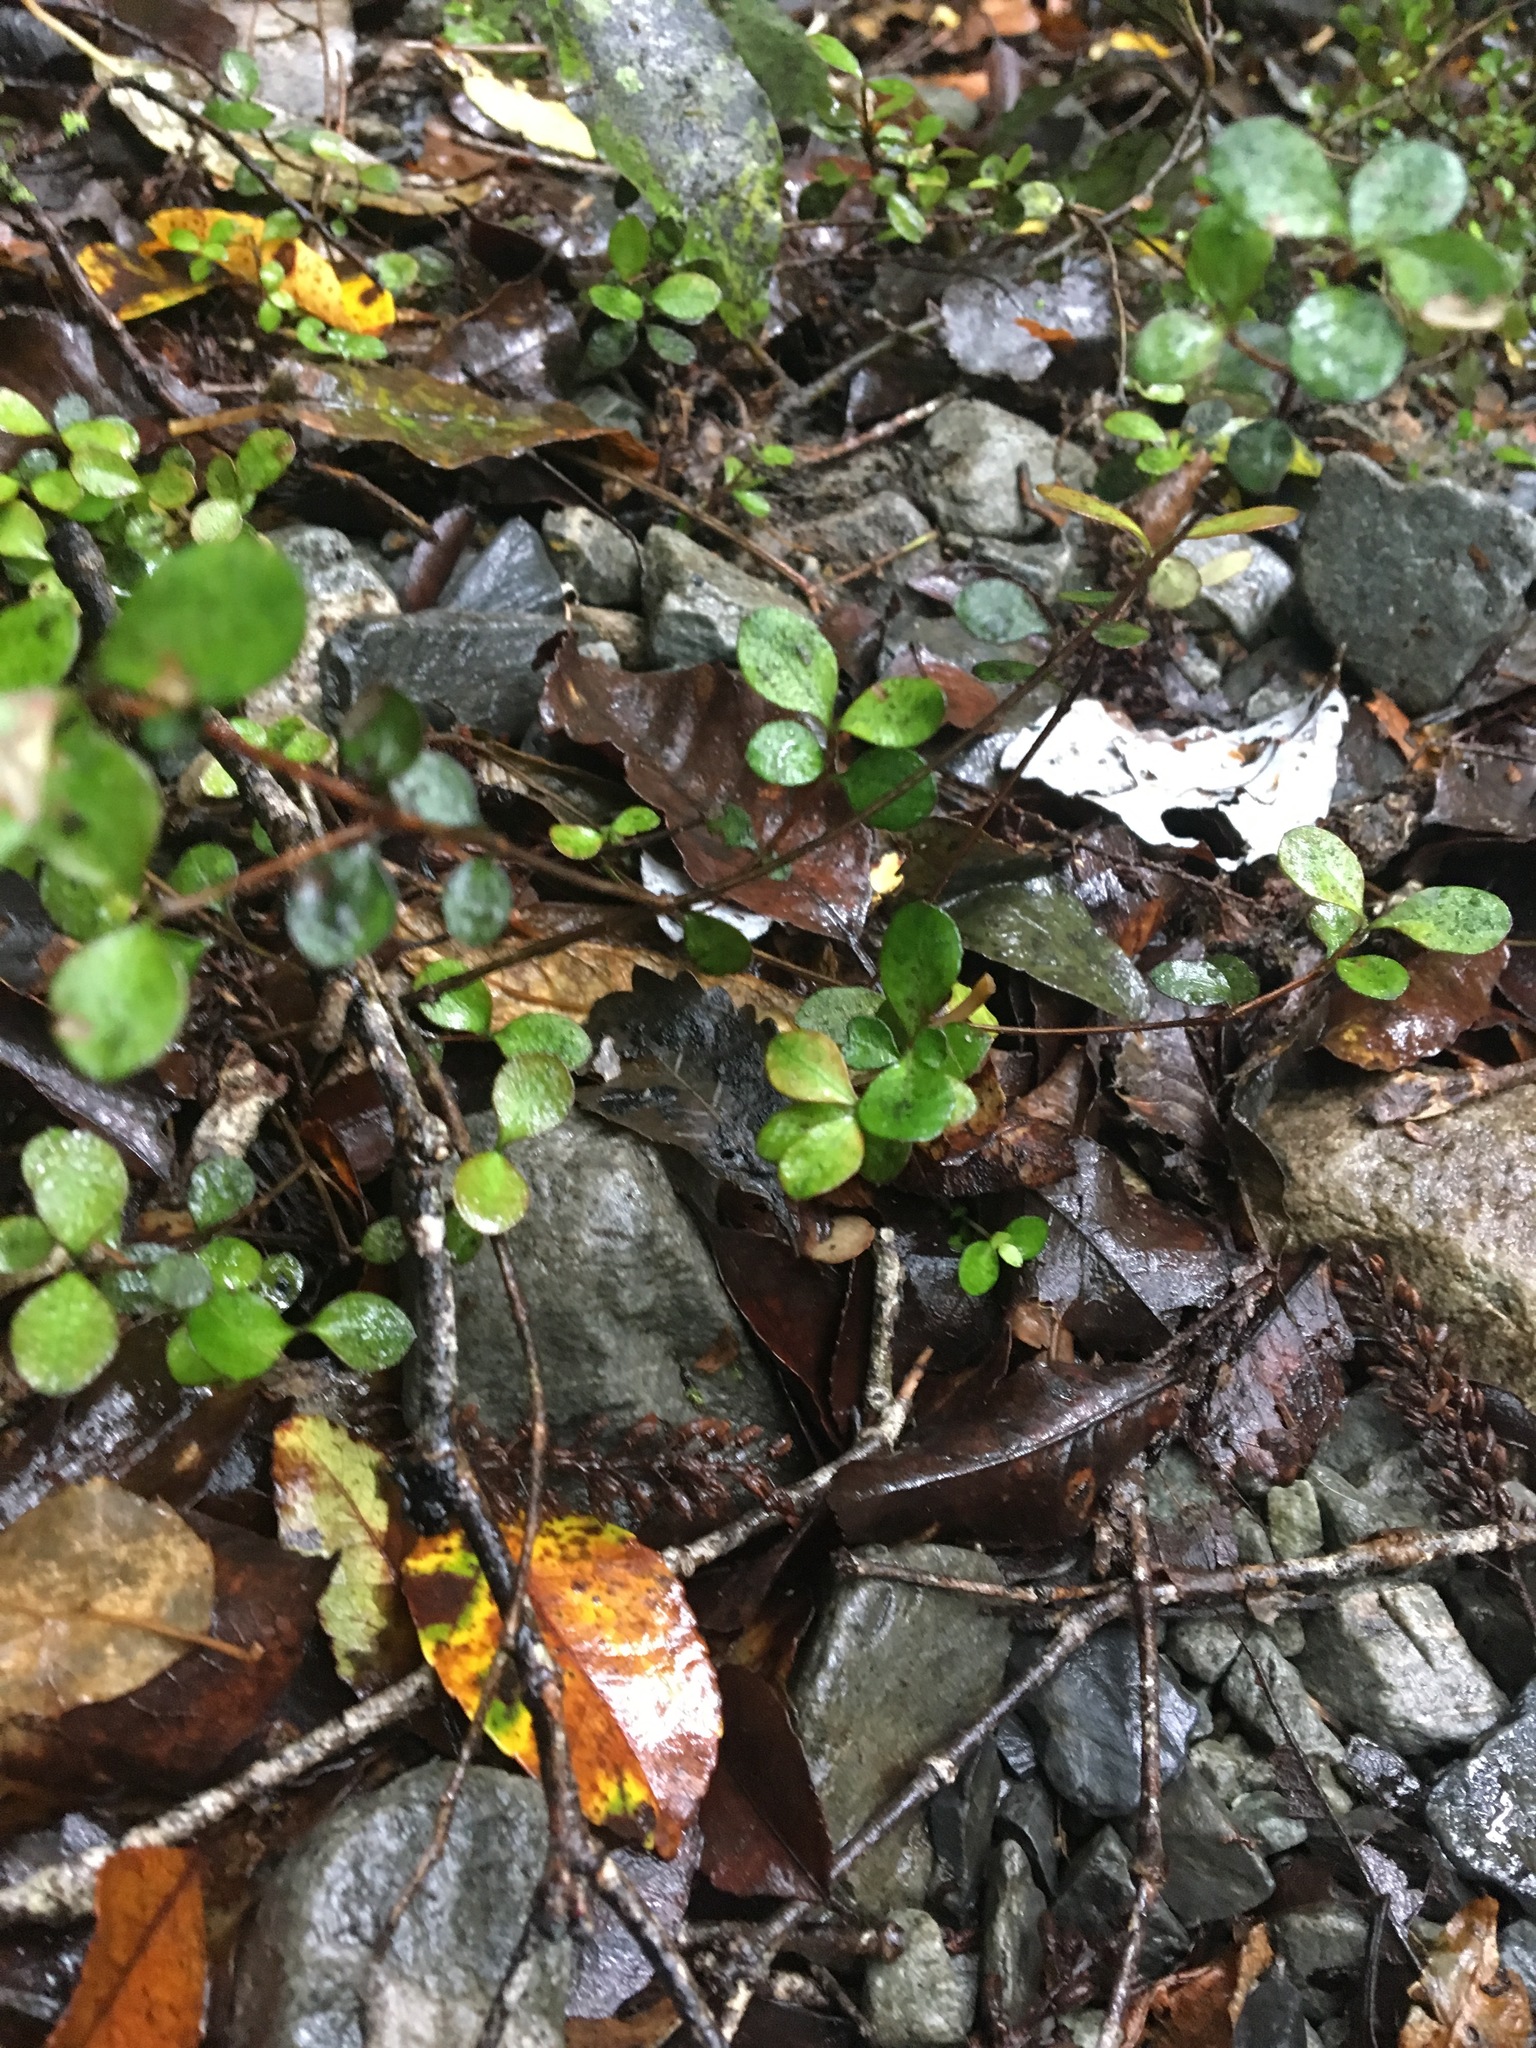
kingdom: Plantae
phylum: Tracheophyta
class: Magnoliopsida
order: Myrtales
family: Myrtaceae
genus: Neomyrtus
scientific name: Neomyrtus pedunculata
